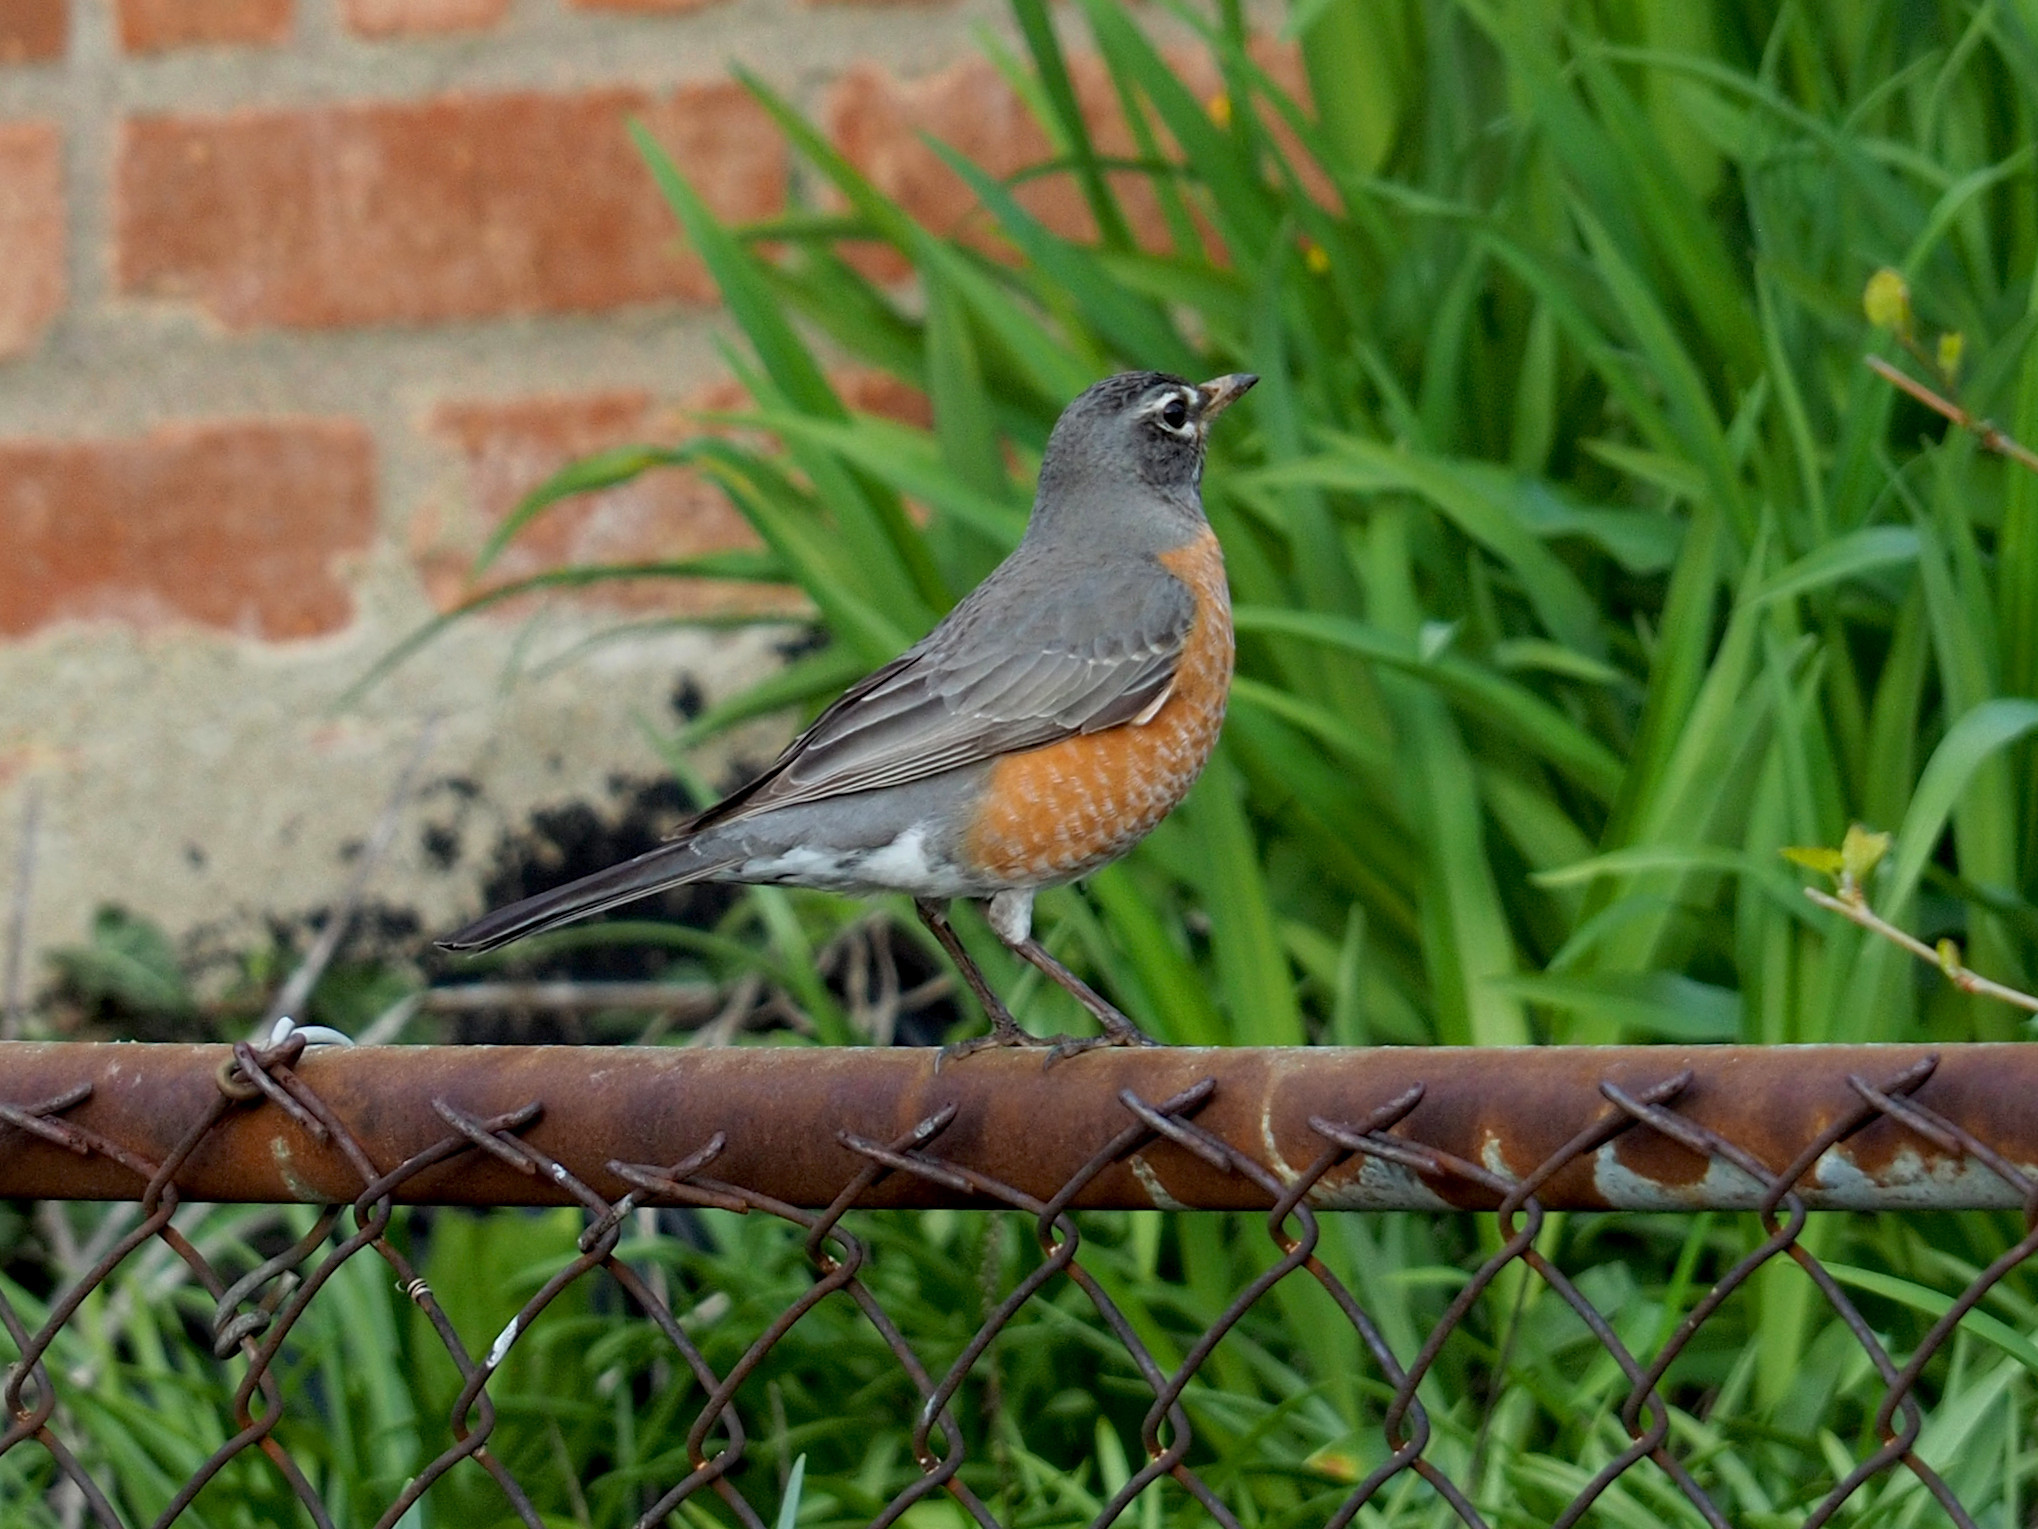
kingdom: Animalia
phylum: Chordata
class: Aves
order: Passeriformes
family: Turdidae
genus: Turdus
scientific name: Turdus migratorius
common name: American robin
